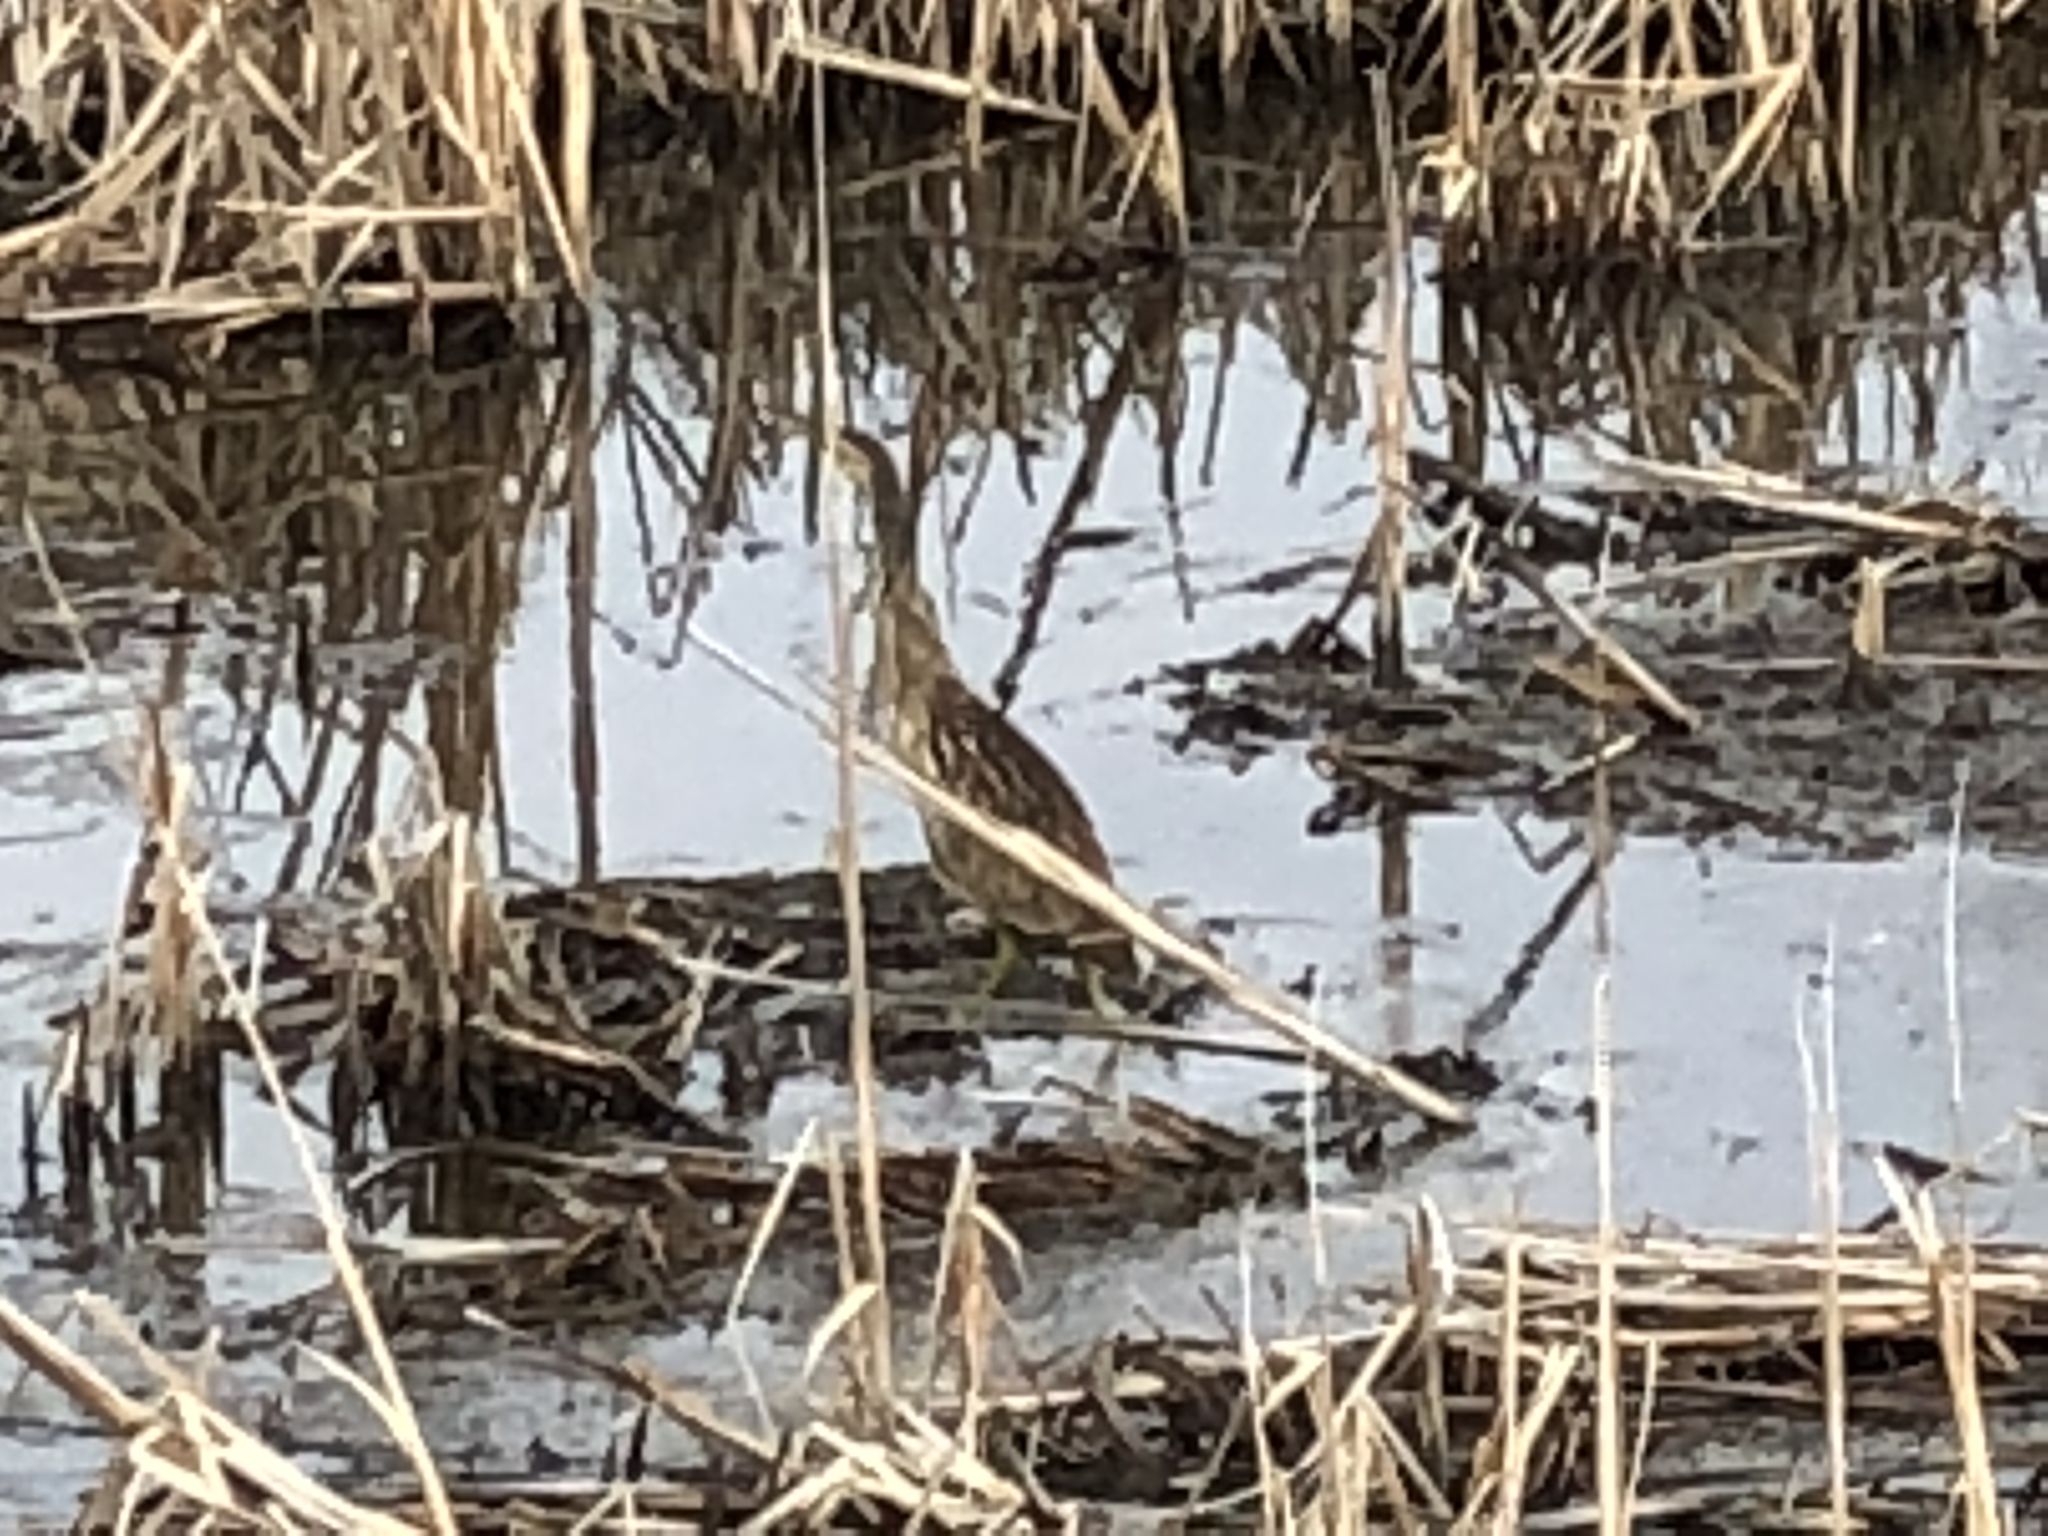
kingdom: Animalia
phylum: Chordata
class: Aves
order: Pelecaniformes
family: Ardeidae
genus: Botaurus
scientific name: Botaurus lentiginosus
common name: American bittern
